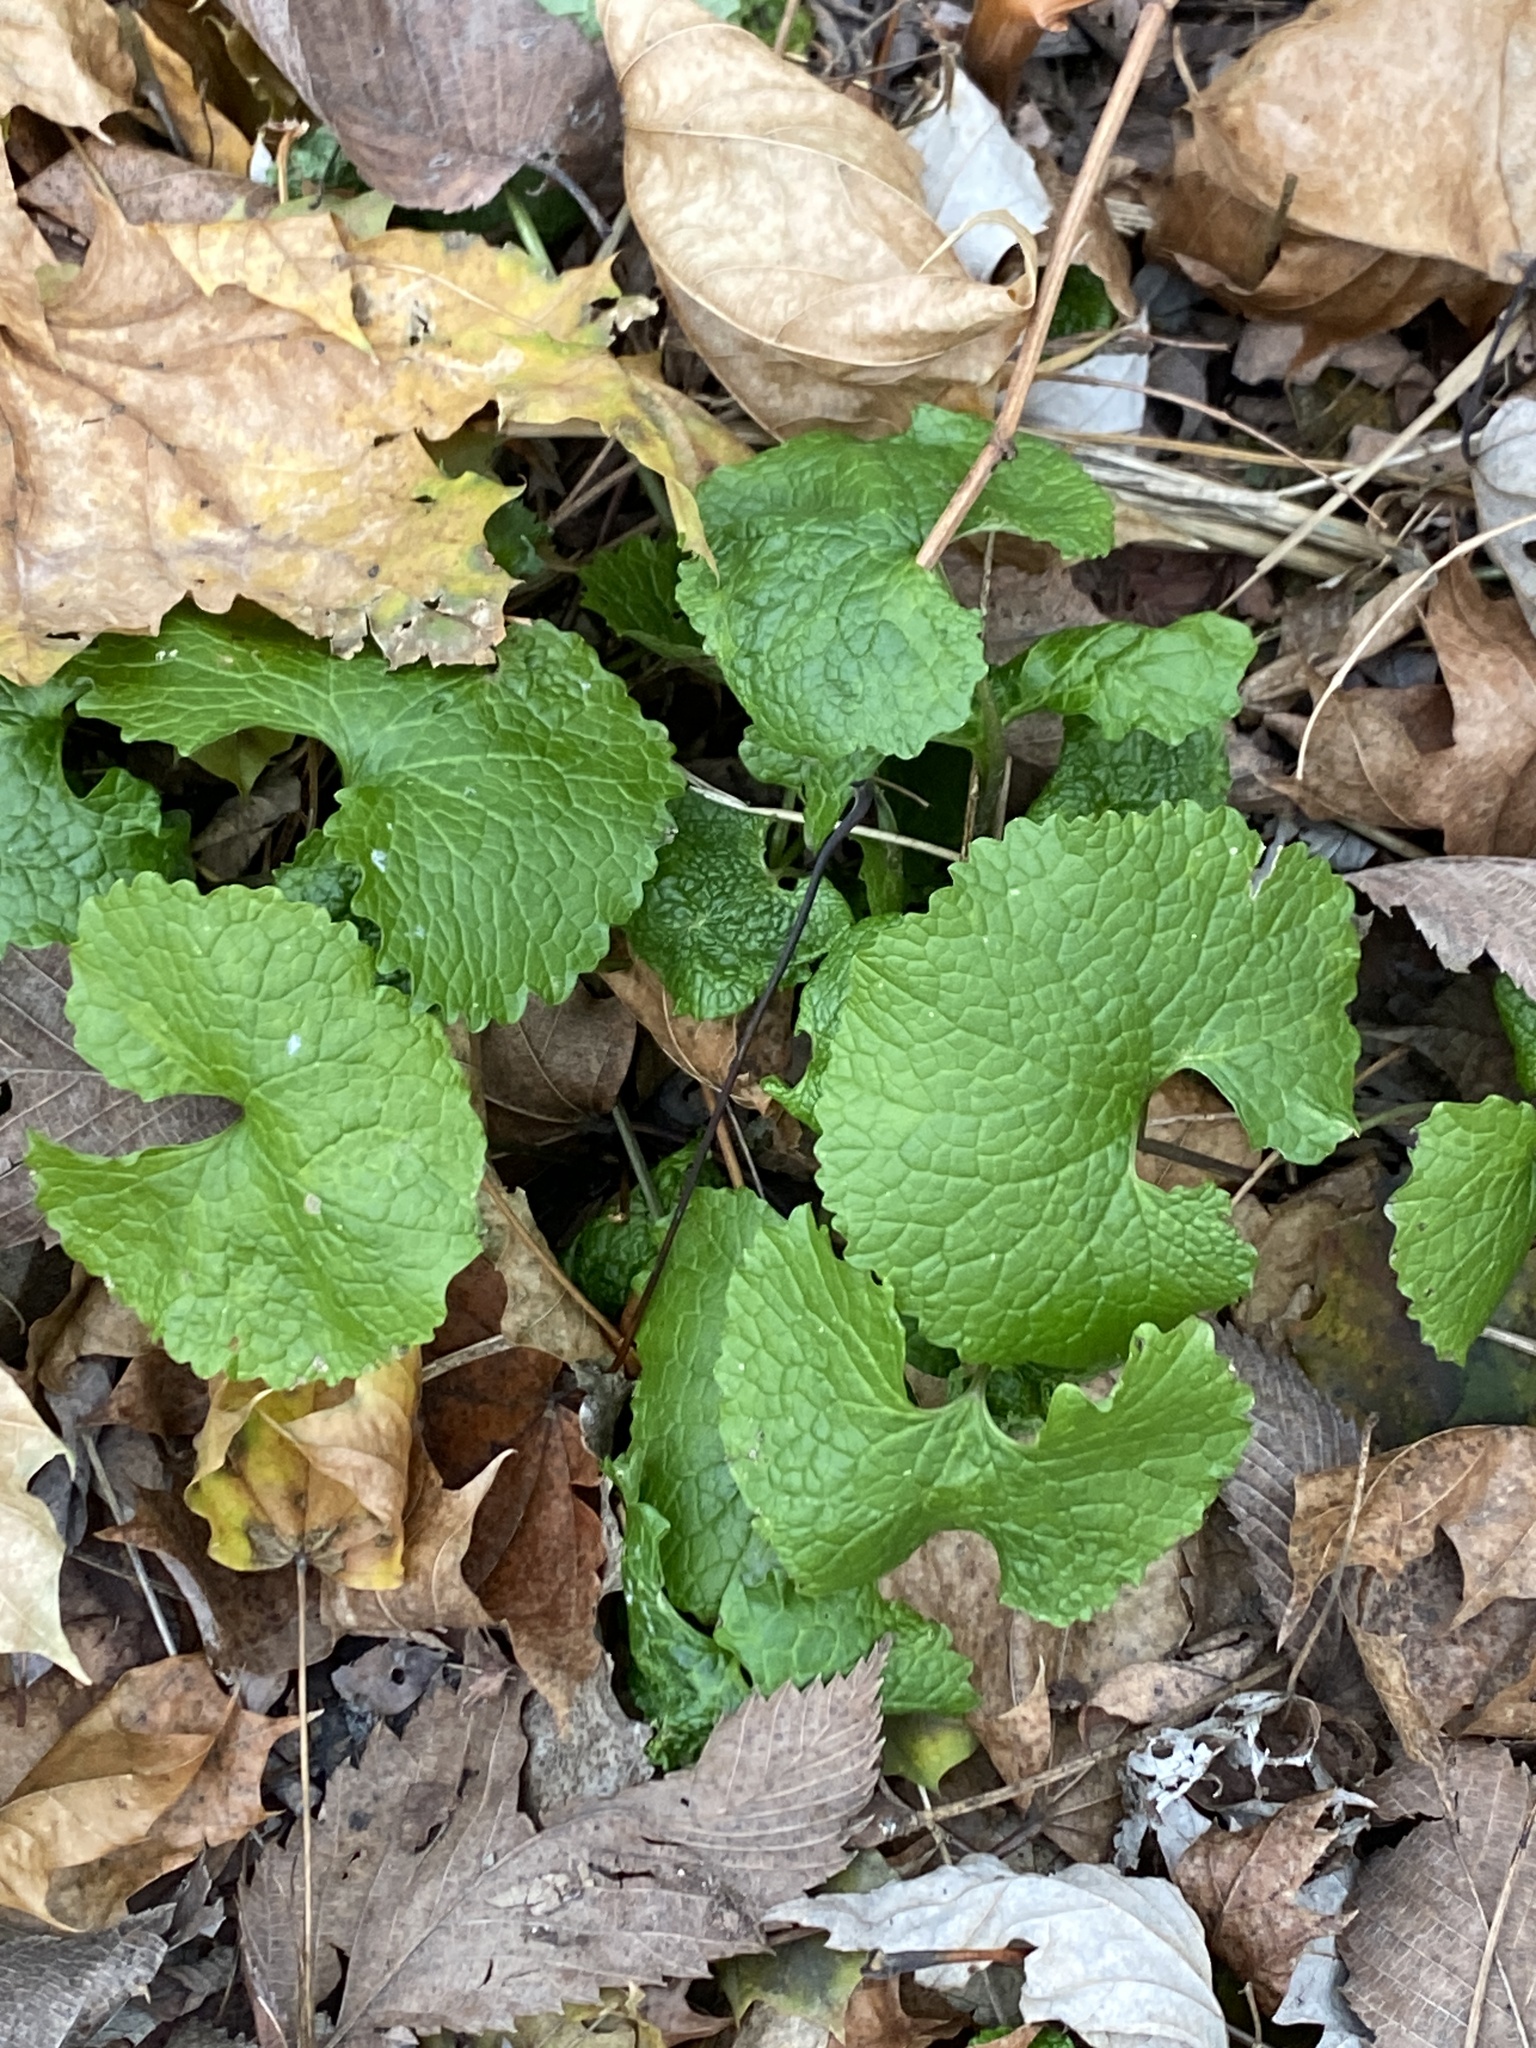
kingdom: Plantae
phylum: Tracheophyta
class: Magnoliopsida
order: Brassicales
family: Brassicaceae
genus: Alliaria
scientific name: Alliaria petiolata
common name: Garlic mustard
